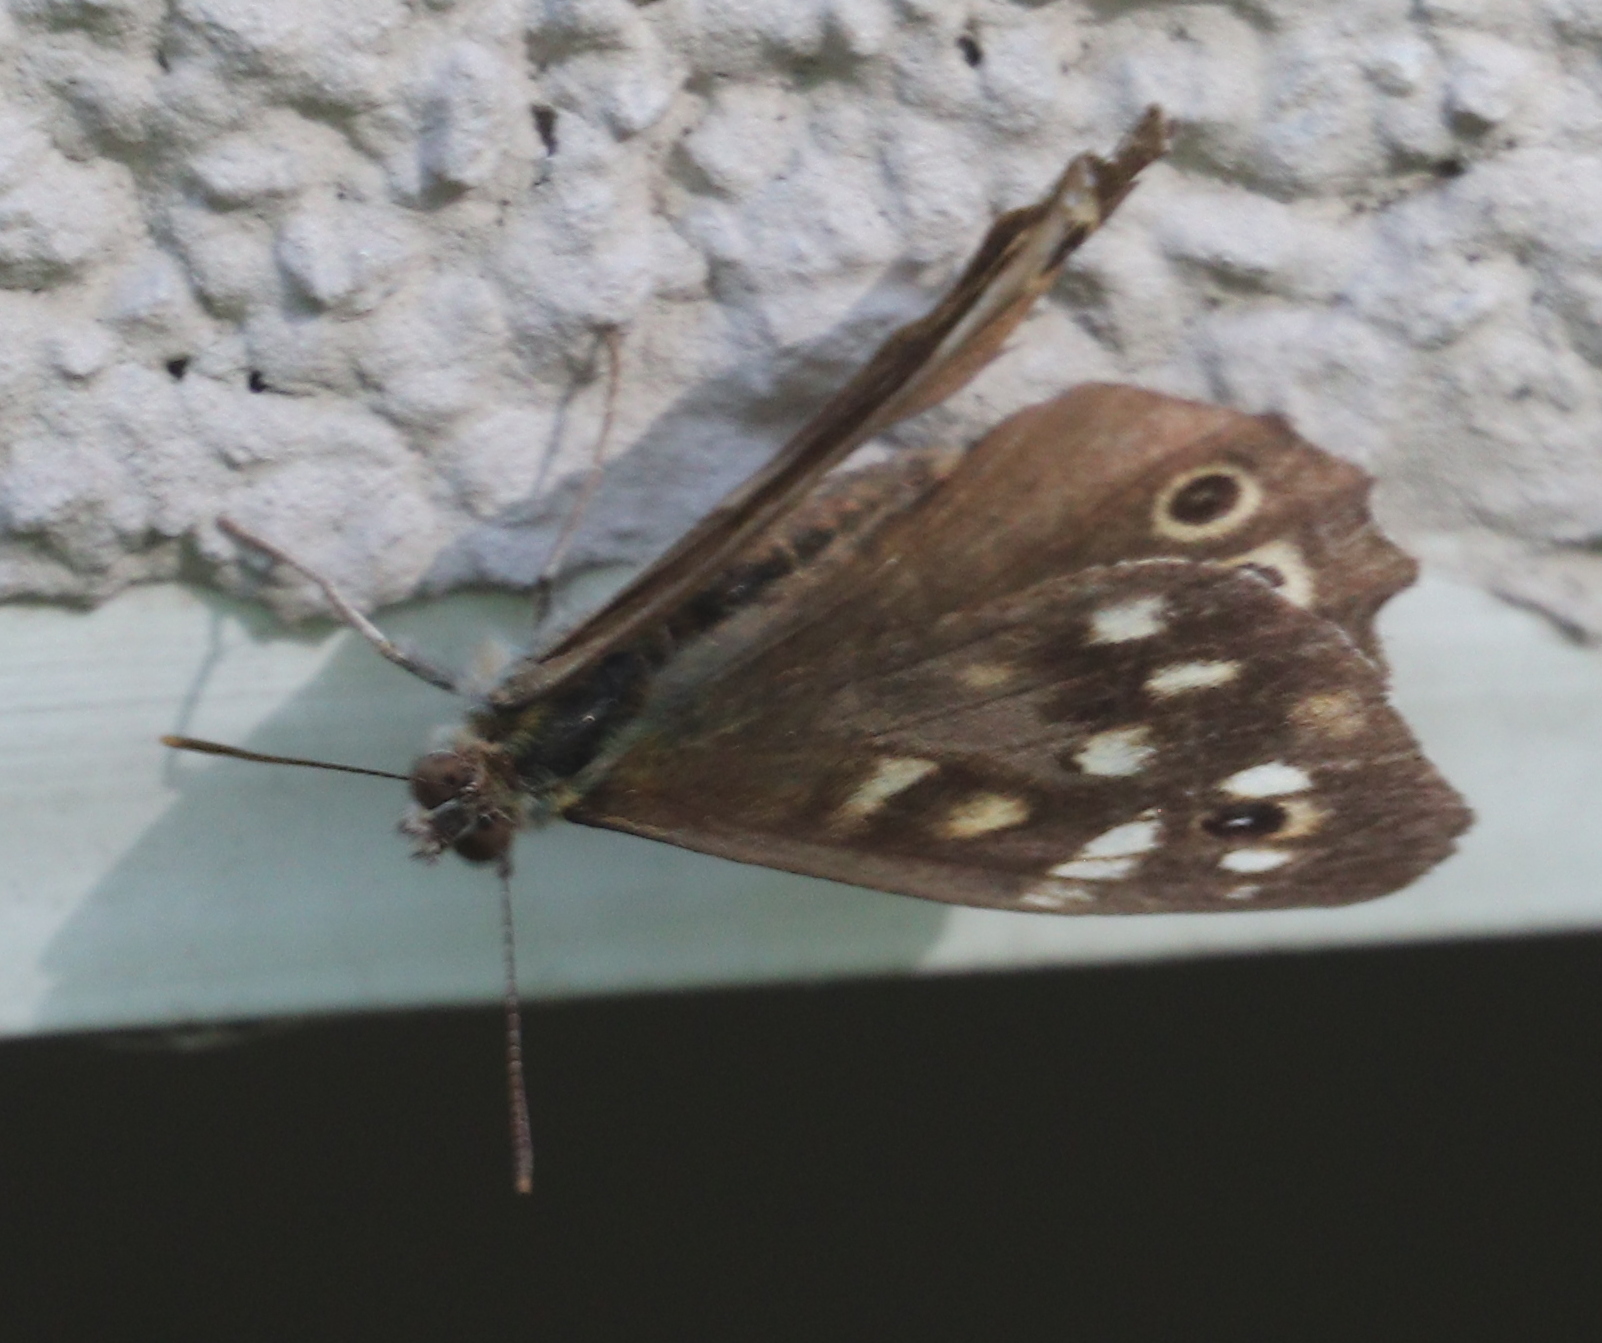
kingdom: Animalia
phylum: Arthropoda
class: Insecta
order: Lepidoptera
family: Nymphalidae
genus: Pararge
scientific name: Pararge aegeria
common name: Speckled wood
